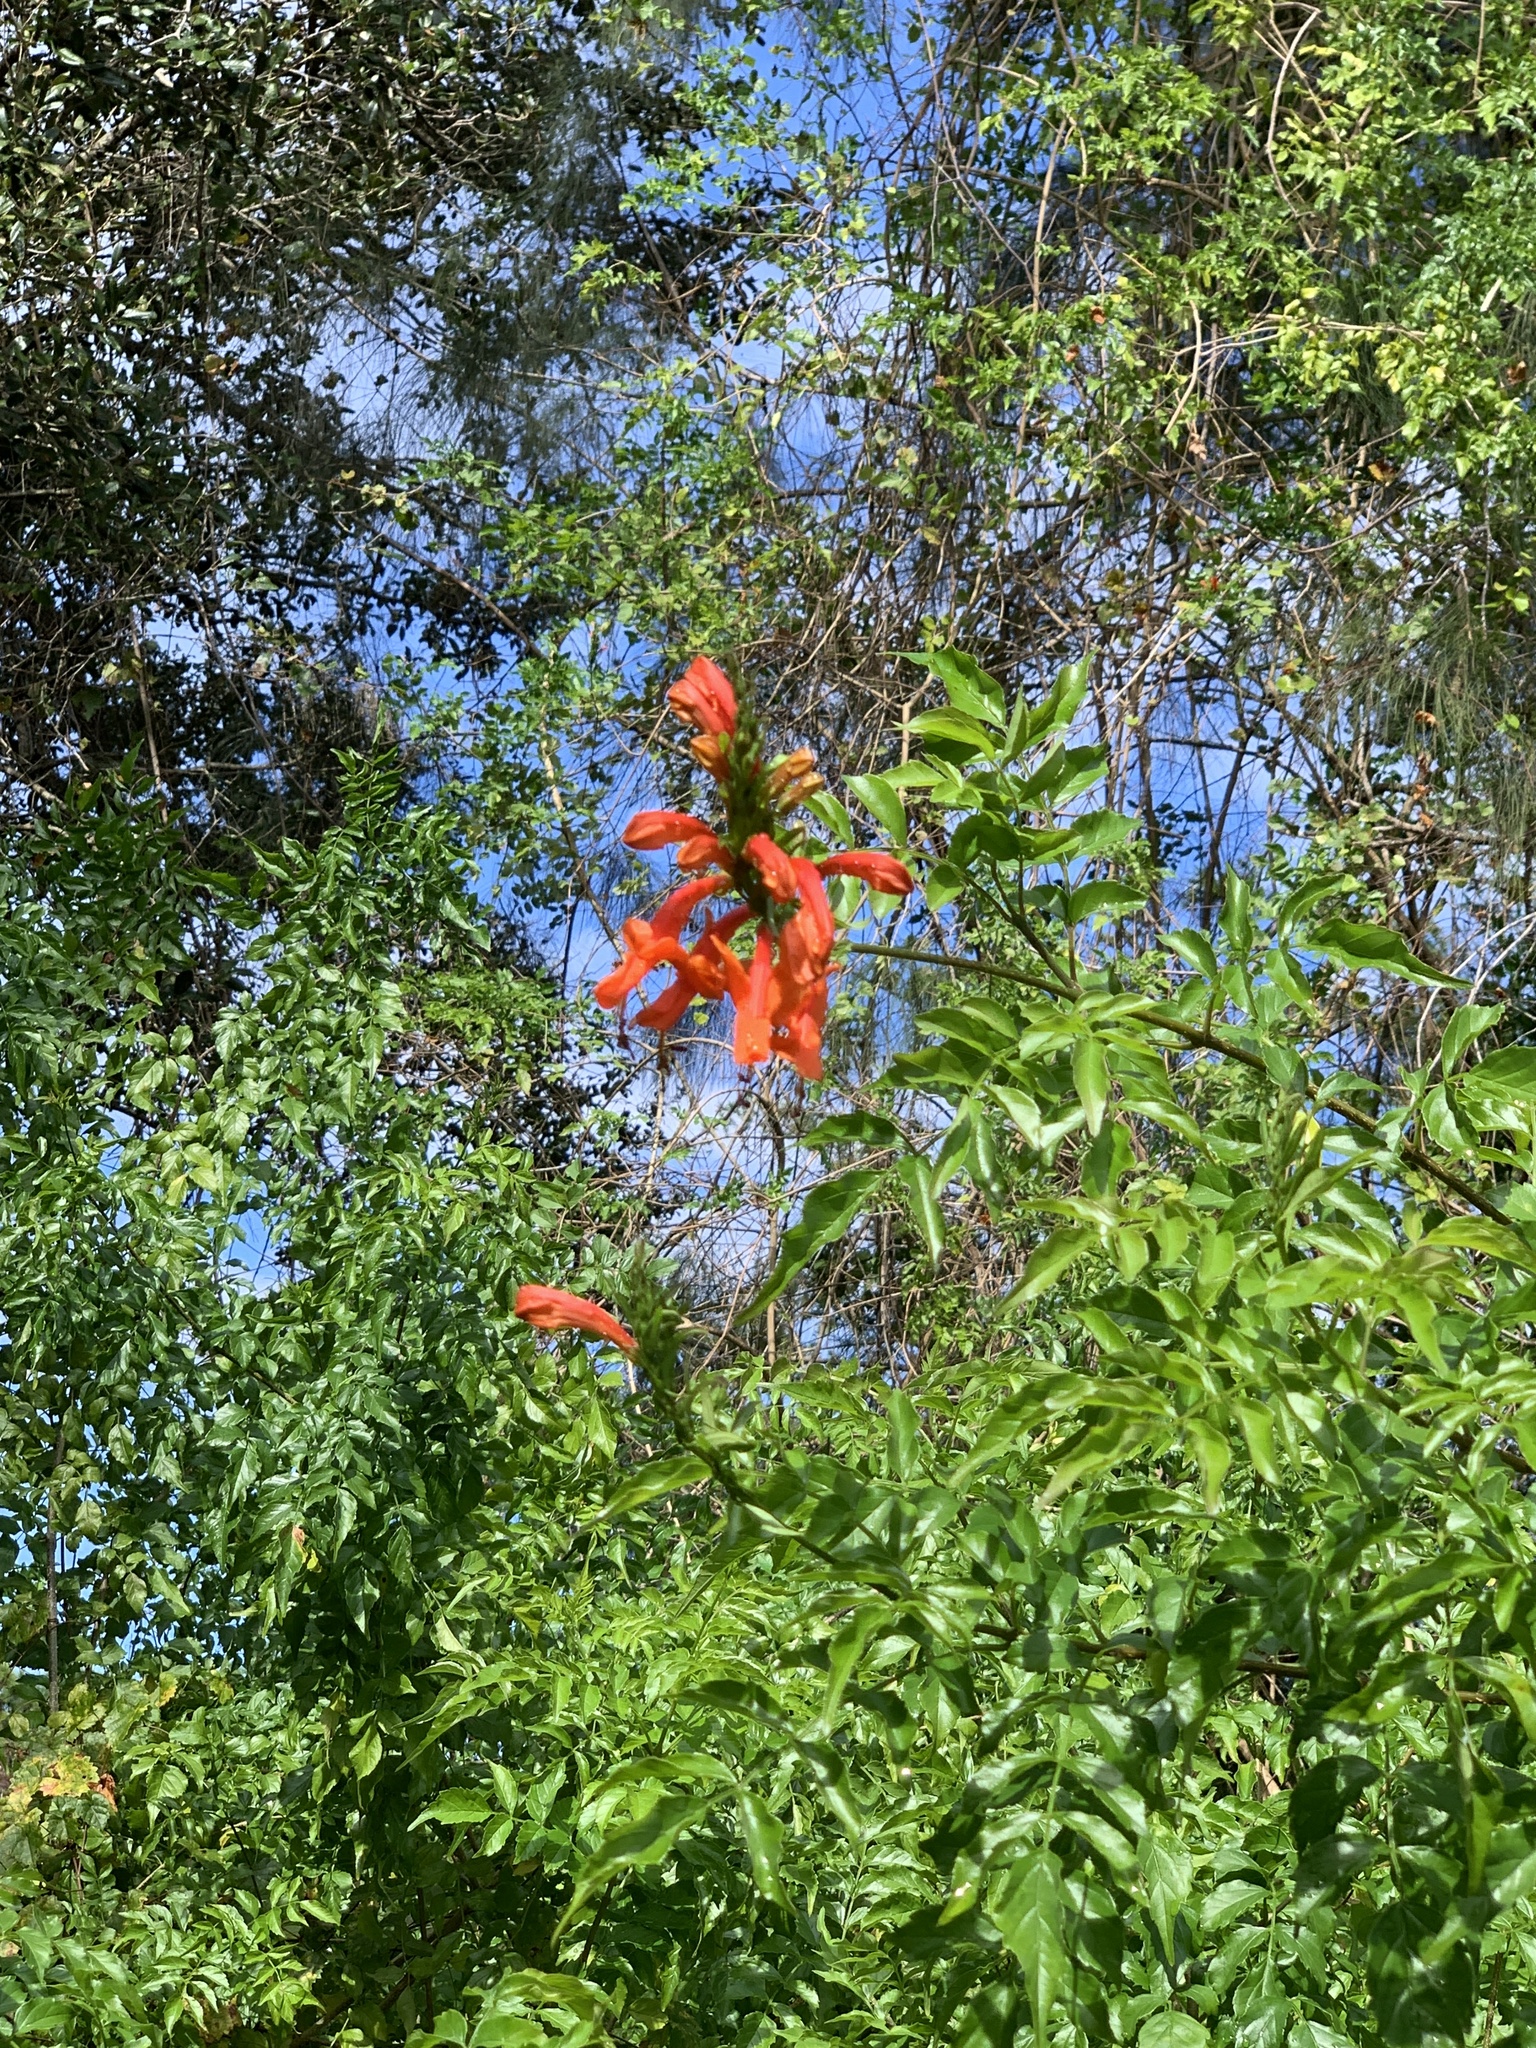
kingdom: Plantae
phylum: Tracheophyta
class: Magnoliopsida
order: Lamiales
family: Bignoniaceae
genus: Tecomaria
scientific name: Tecomaria capensis
